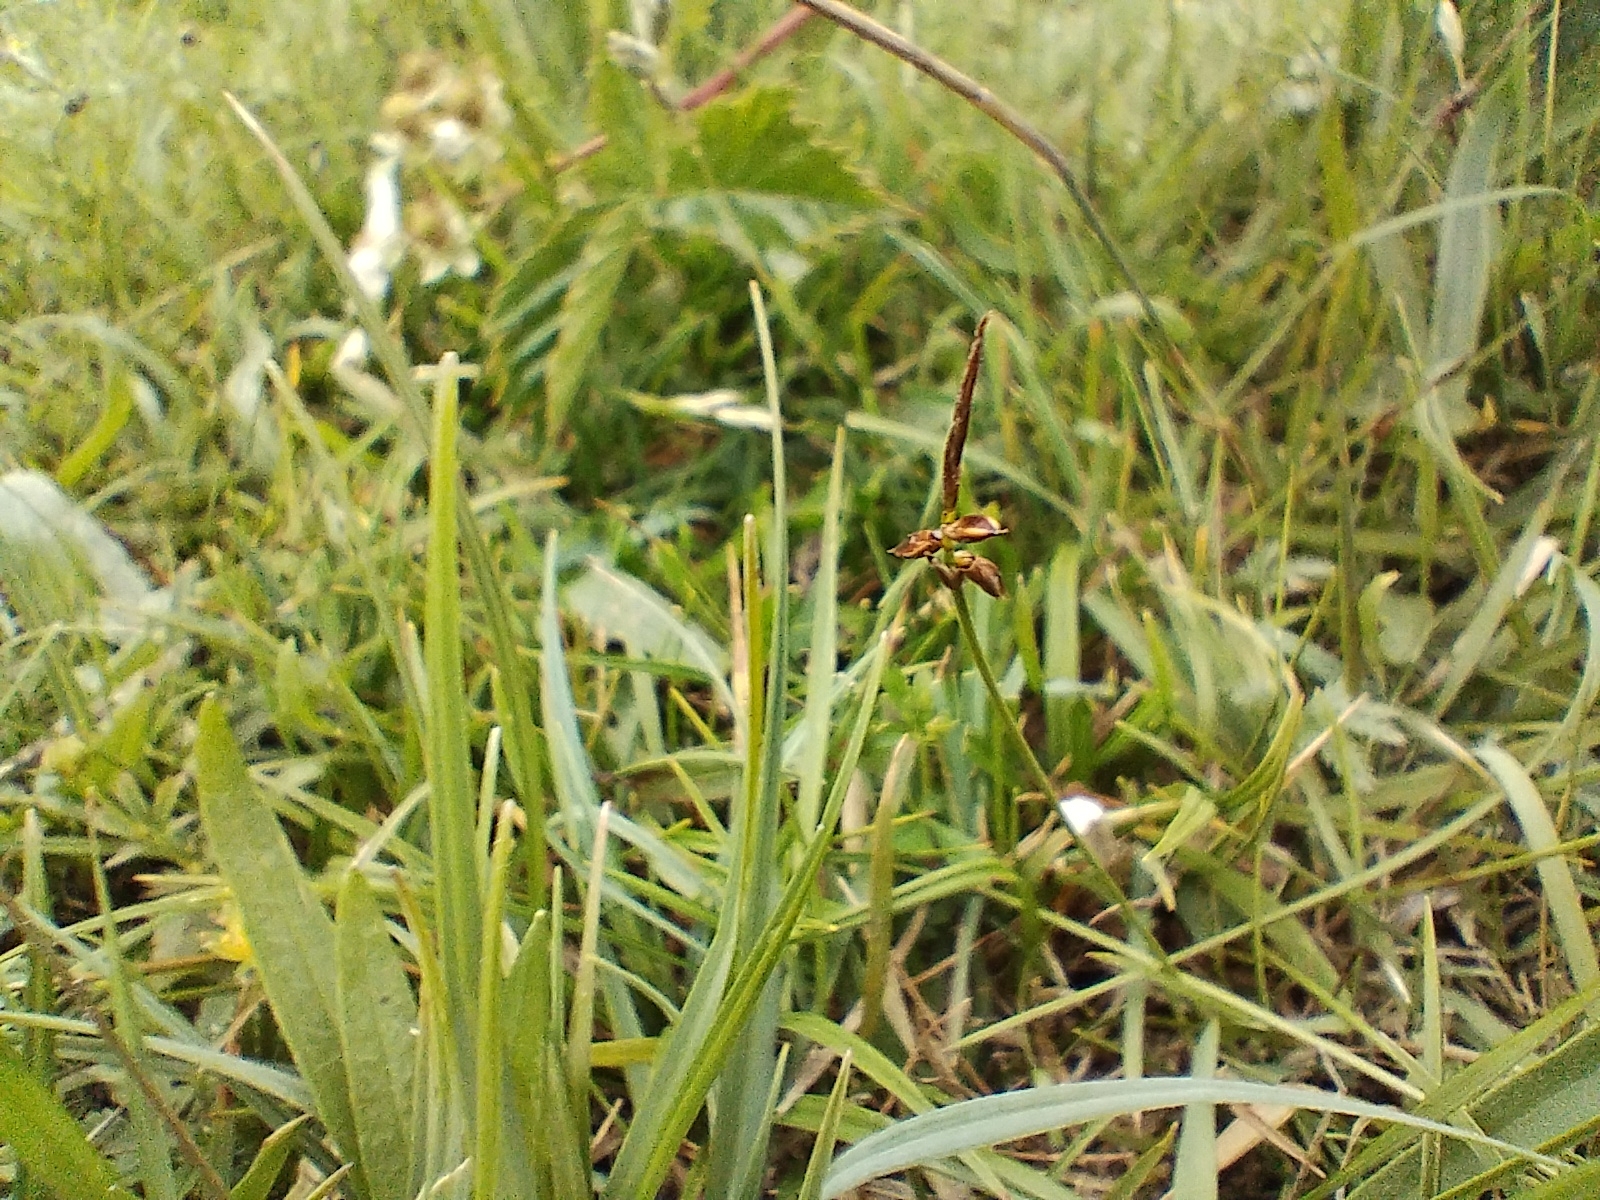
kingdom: Plantae
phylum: Tracheophyta
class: Liliopsida
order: Poales
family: Cyperaceae
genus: Carex
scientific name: Carex pulicaris
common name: Flea sedge
